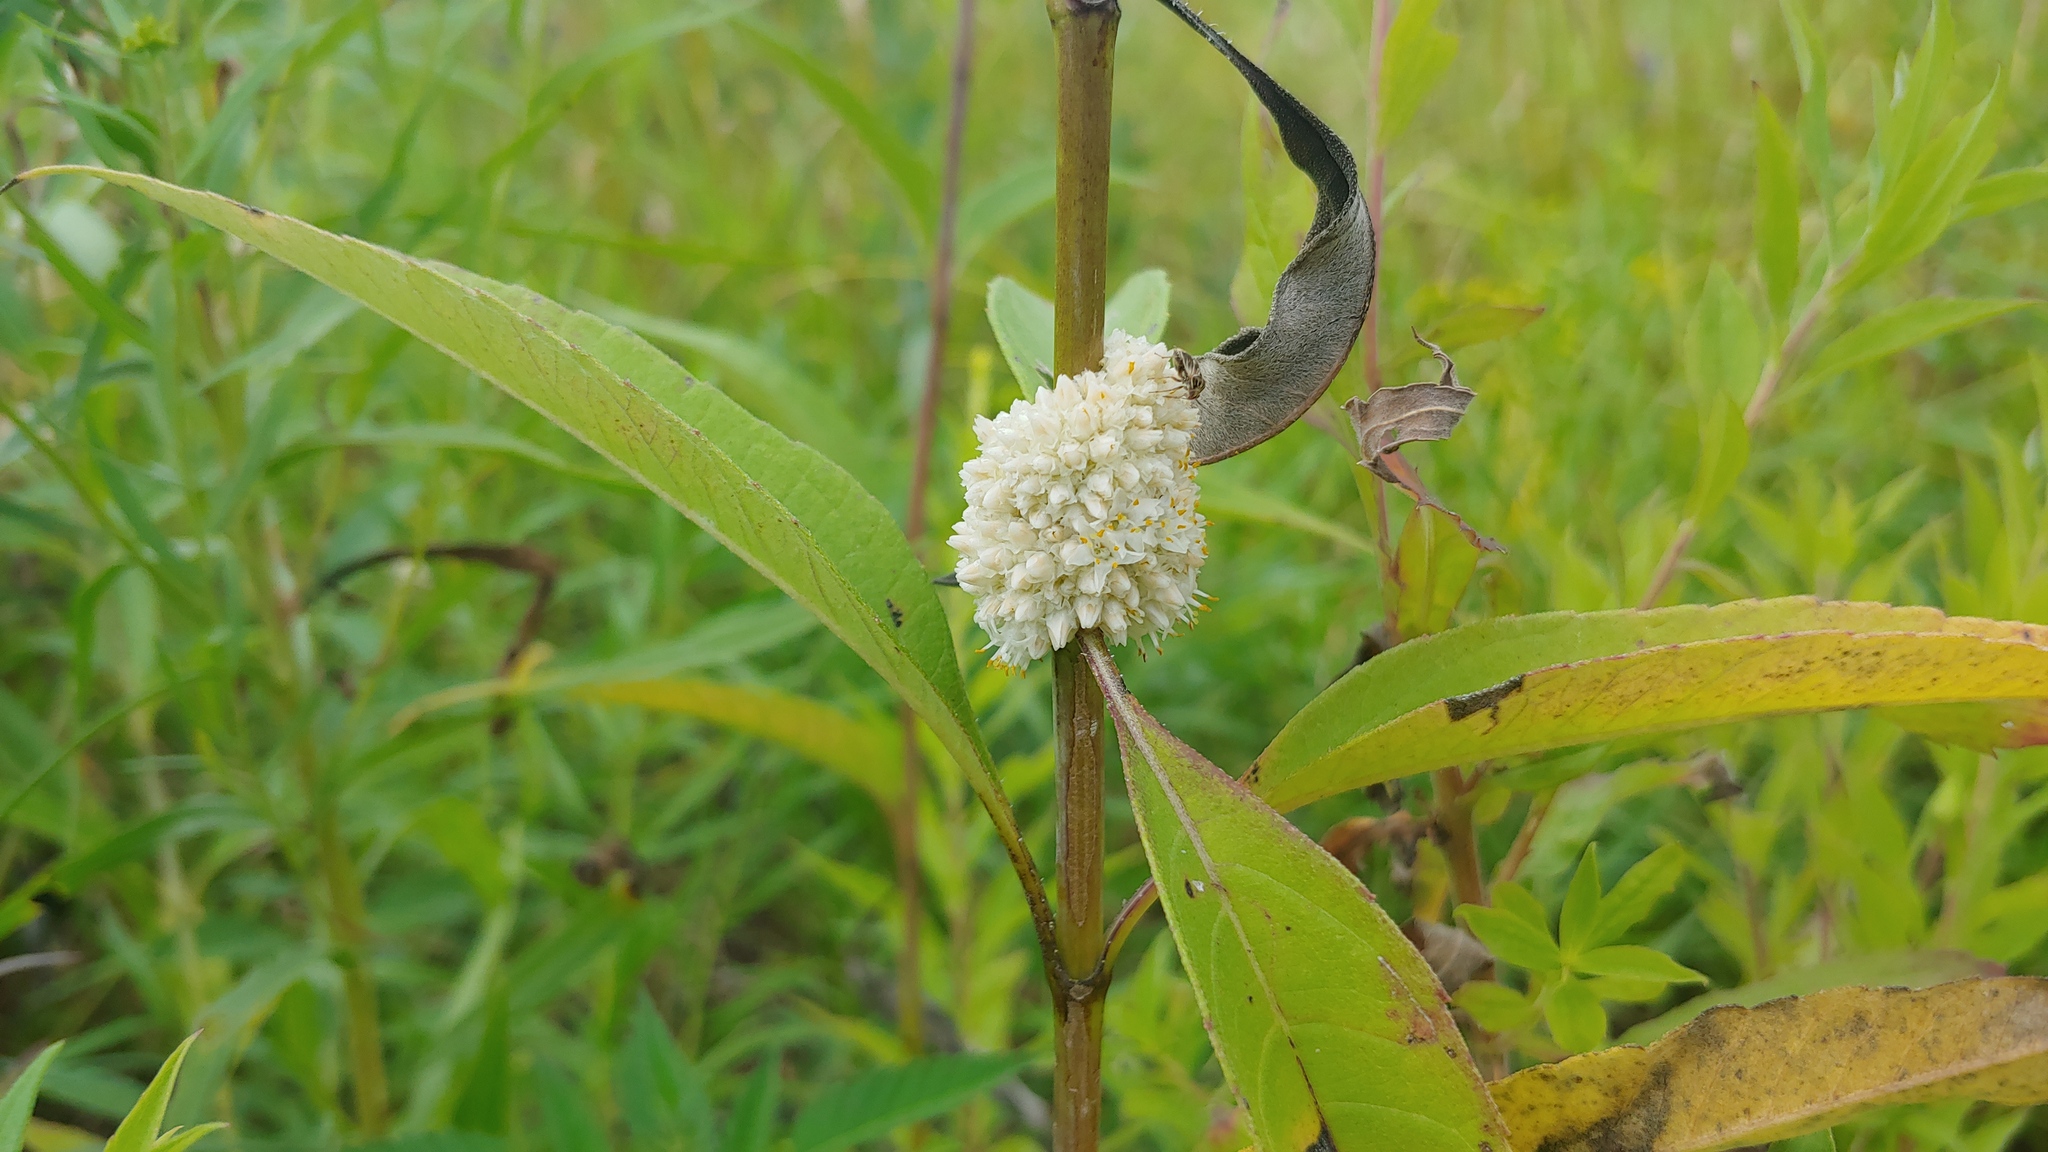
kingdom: Plantae
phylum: Tracheophyta
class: Magnoliopsida
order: Solanales
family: Convolvulaceae
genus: Cuscuta
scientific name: Cuscuta glomerata
